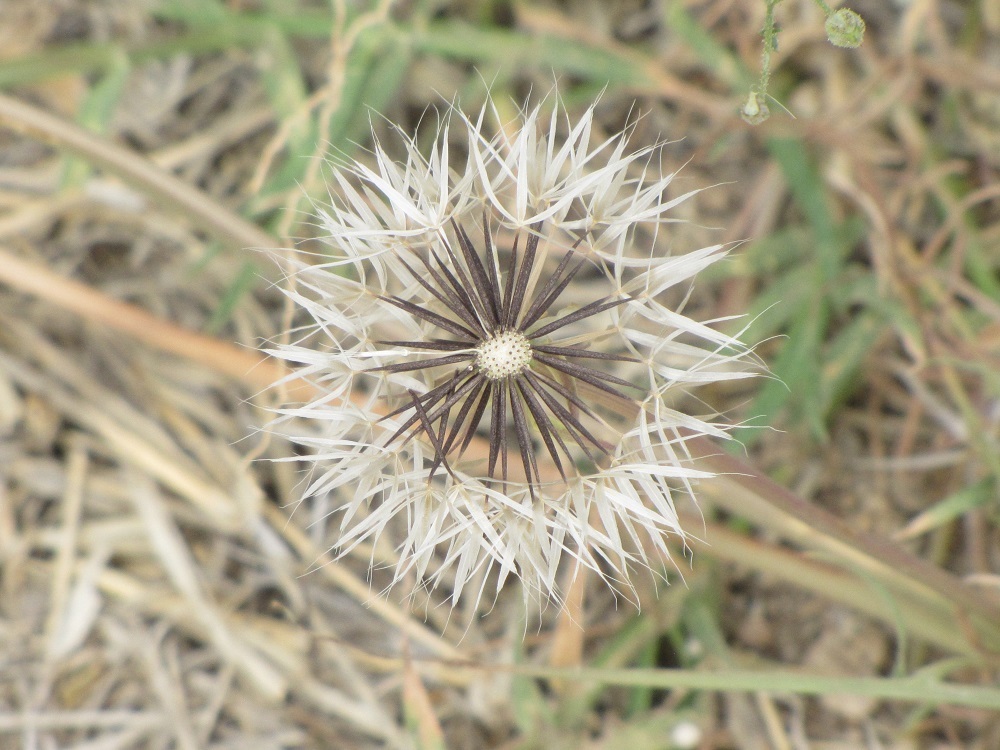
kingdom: Plantae
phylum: Tracheophyta
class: Magnoliopsida
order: Asterales
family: Asteraceae
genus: Microseris
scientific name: Microseris lindleyi
